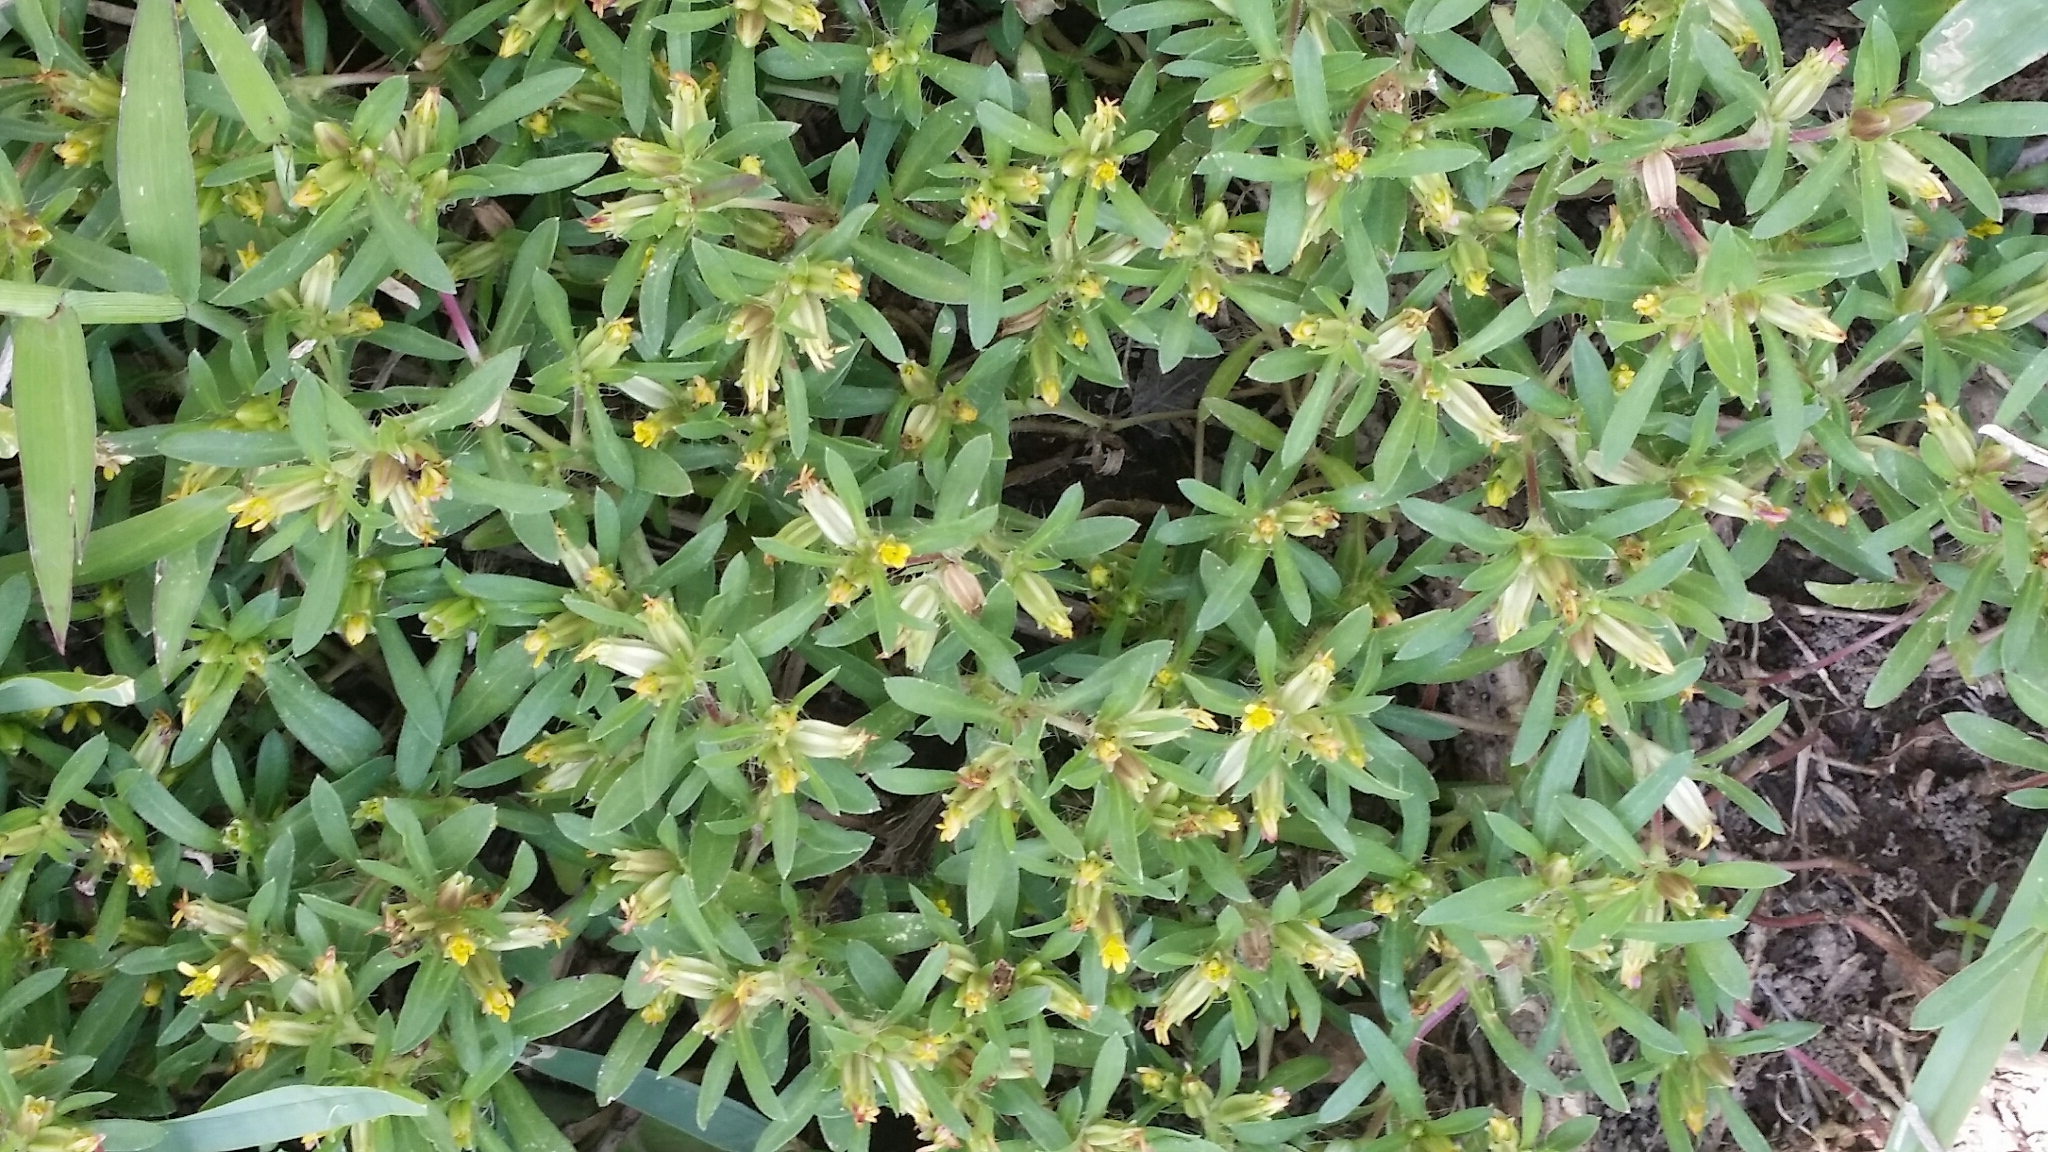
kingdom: Plantae
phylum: Tracheophyta
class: Magnoliopsida
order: Asterales
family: Asteraceae
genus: Pectis
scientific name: Pectis prostrata
